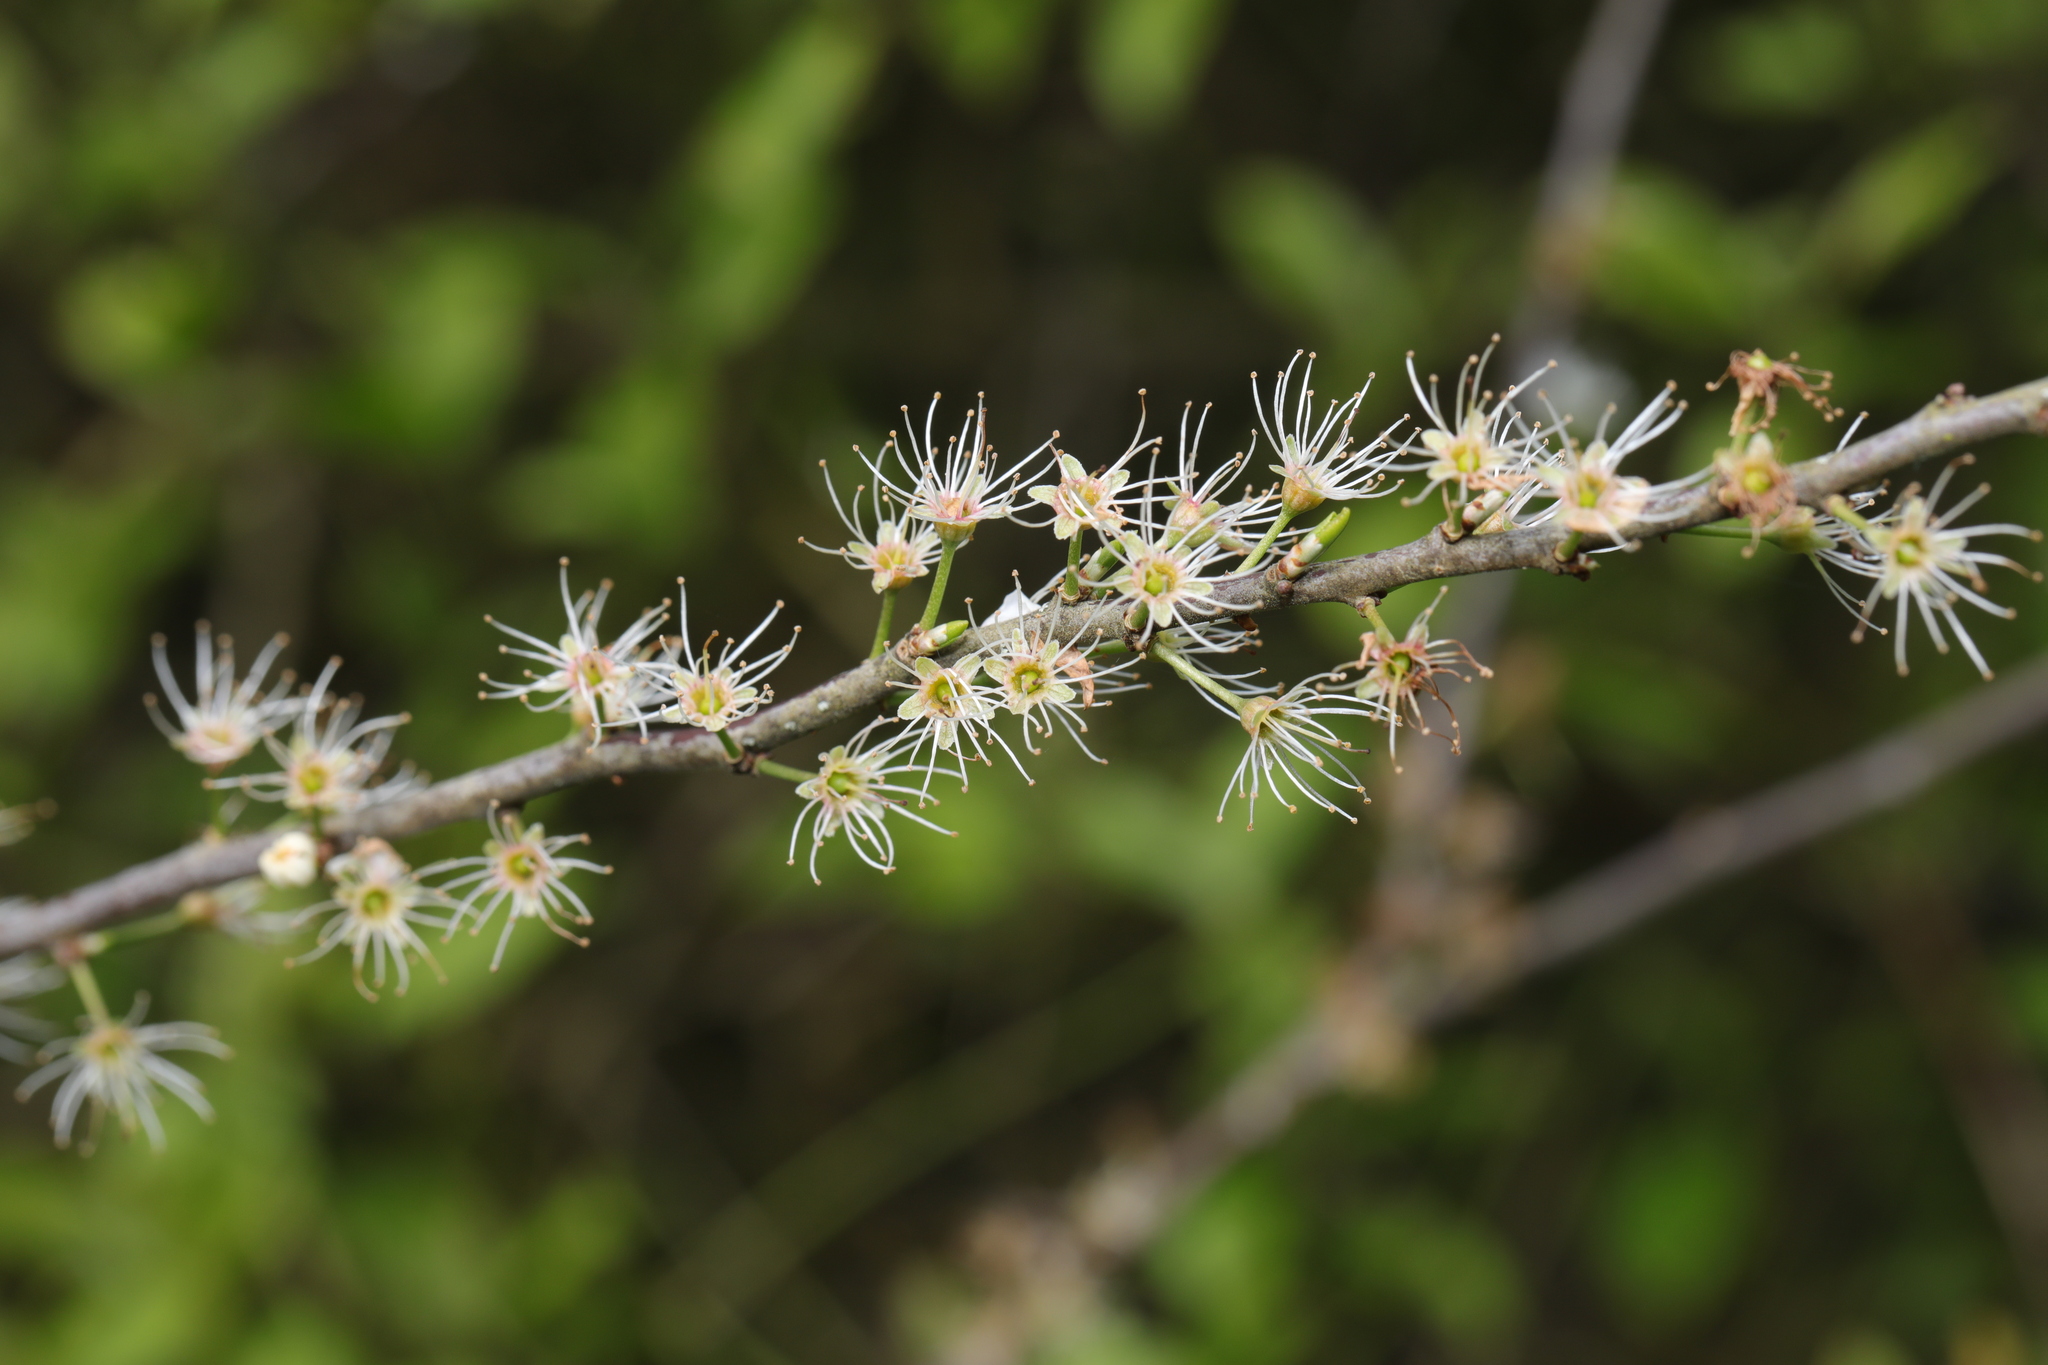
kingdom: Plantae
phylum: Tracheophyta
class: Magnoliopsida
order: Rosales
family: Rosaceae
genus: Prunus
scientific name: Prunus spinosa
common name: Blackthorn
